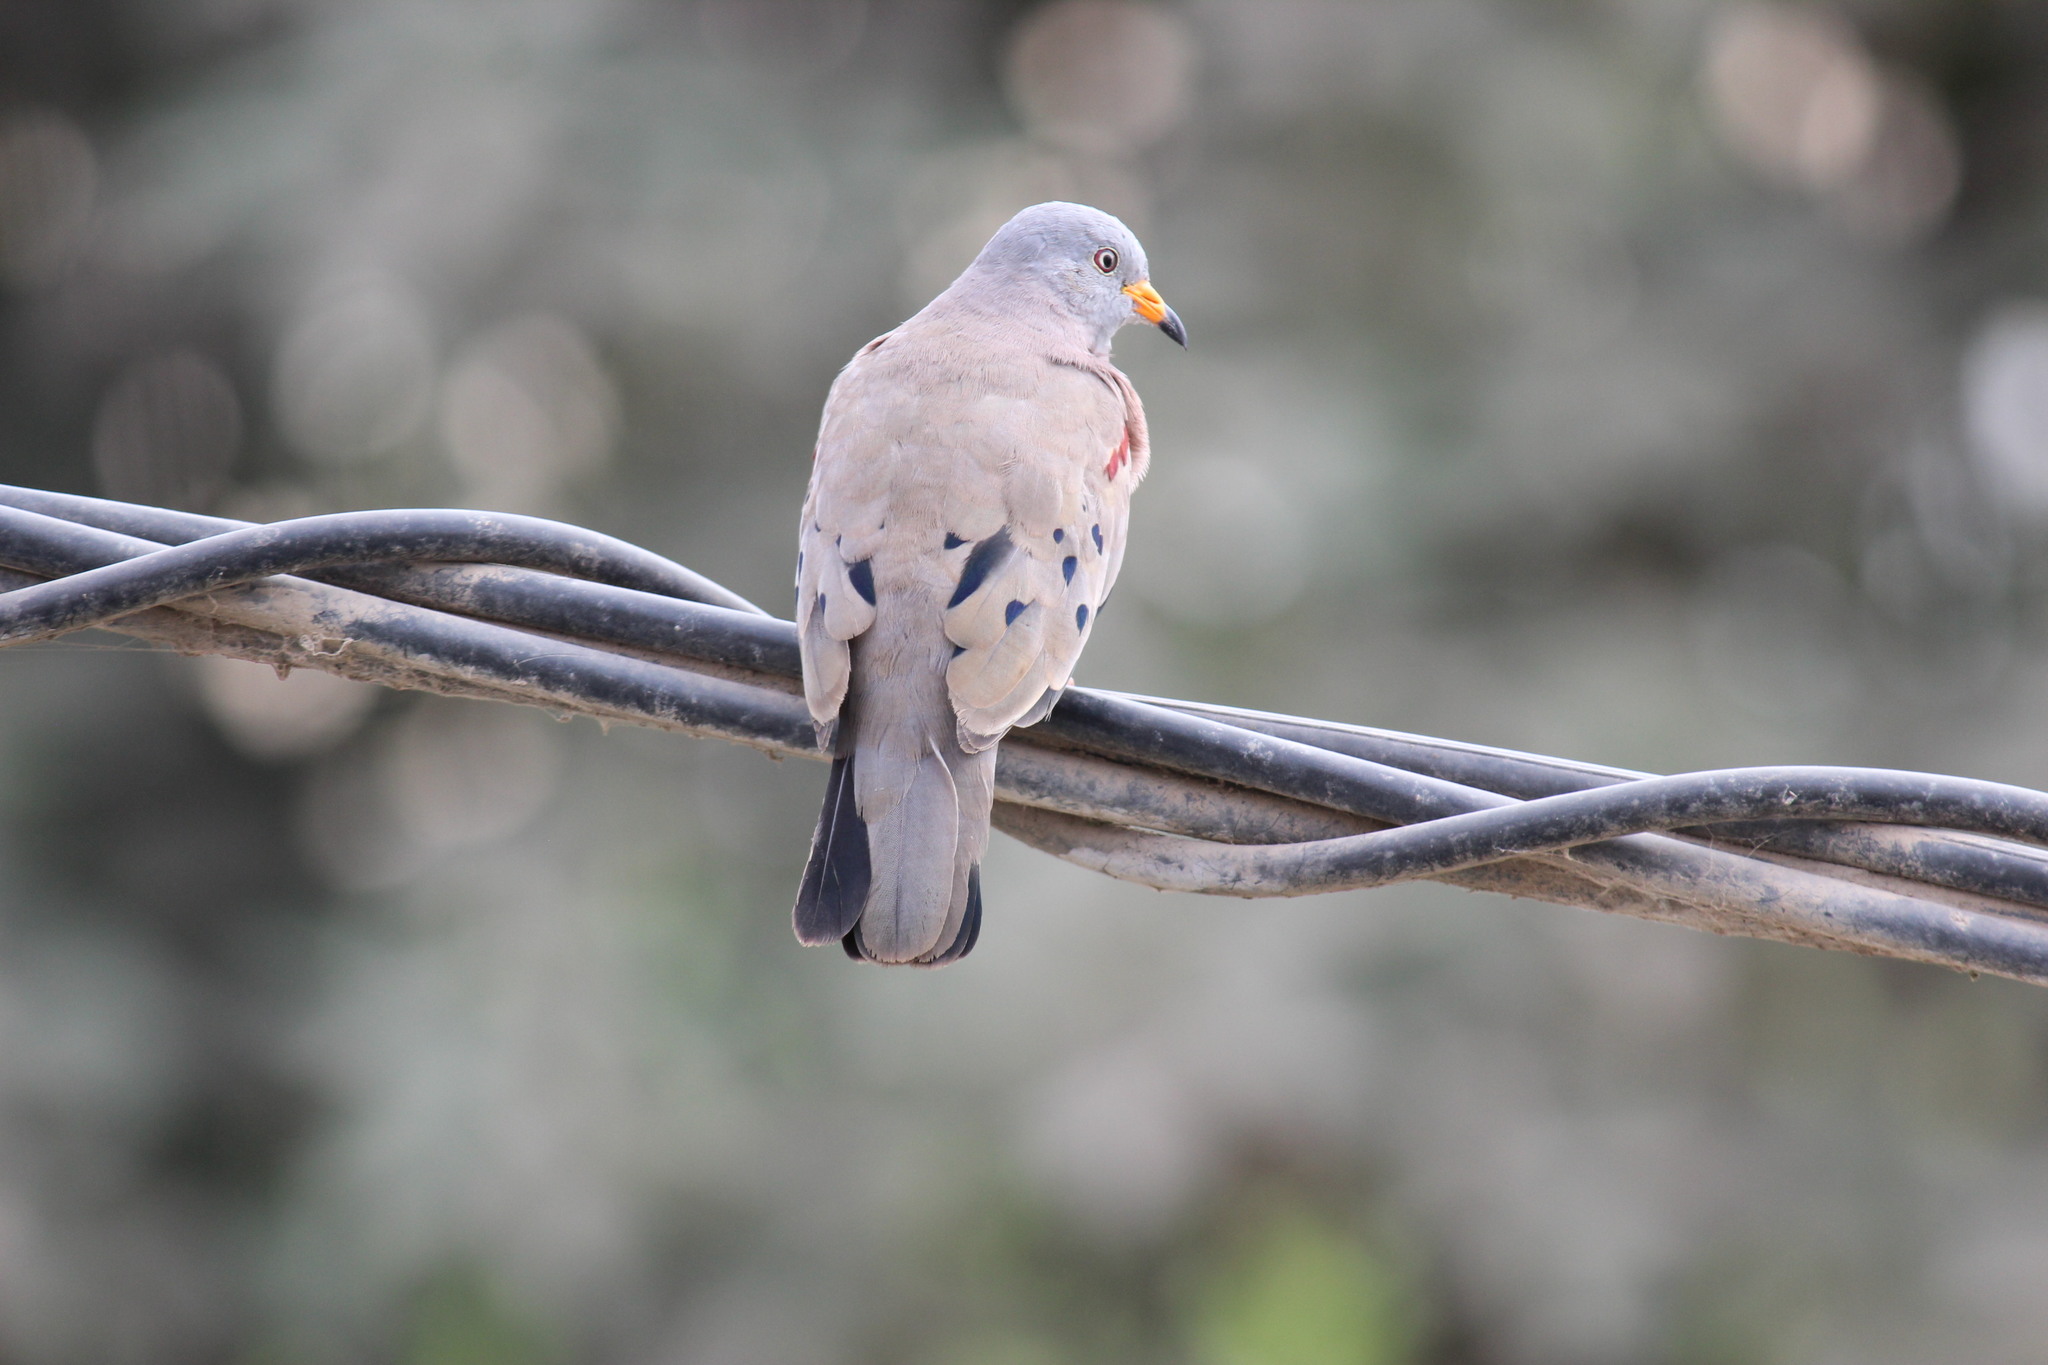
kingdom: Animalia
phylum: Chordata
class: Aves
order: Columbiformes
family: Columbidae
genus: Columbina
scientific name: Columbina cruziana
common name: Croaking ground dove
